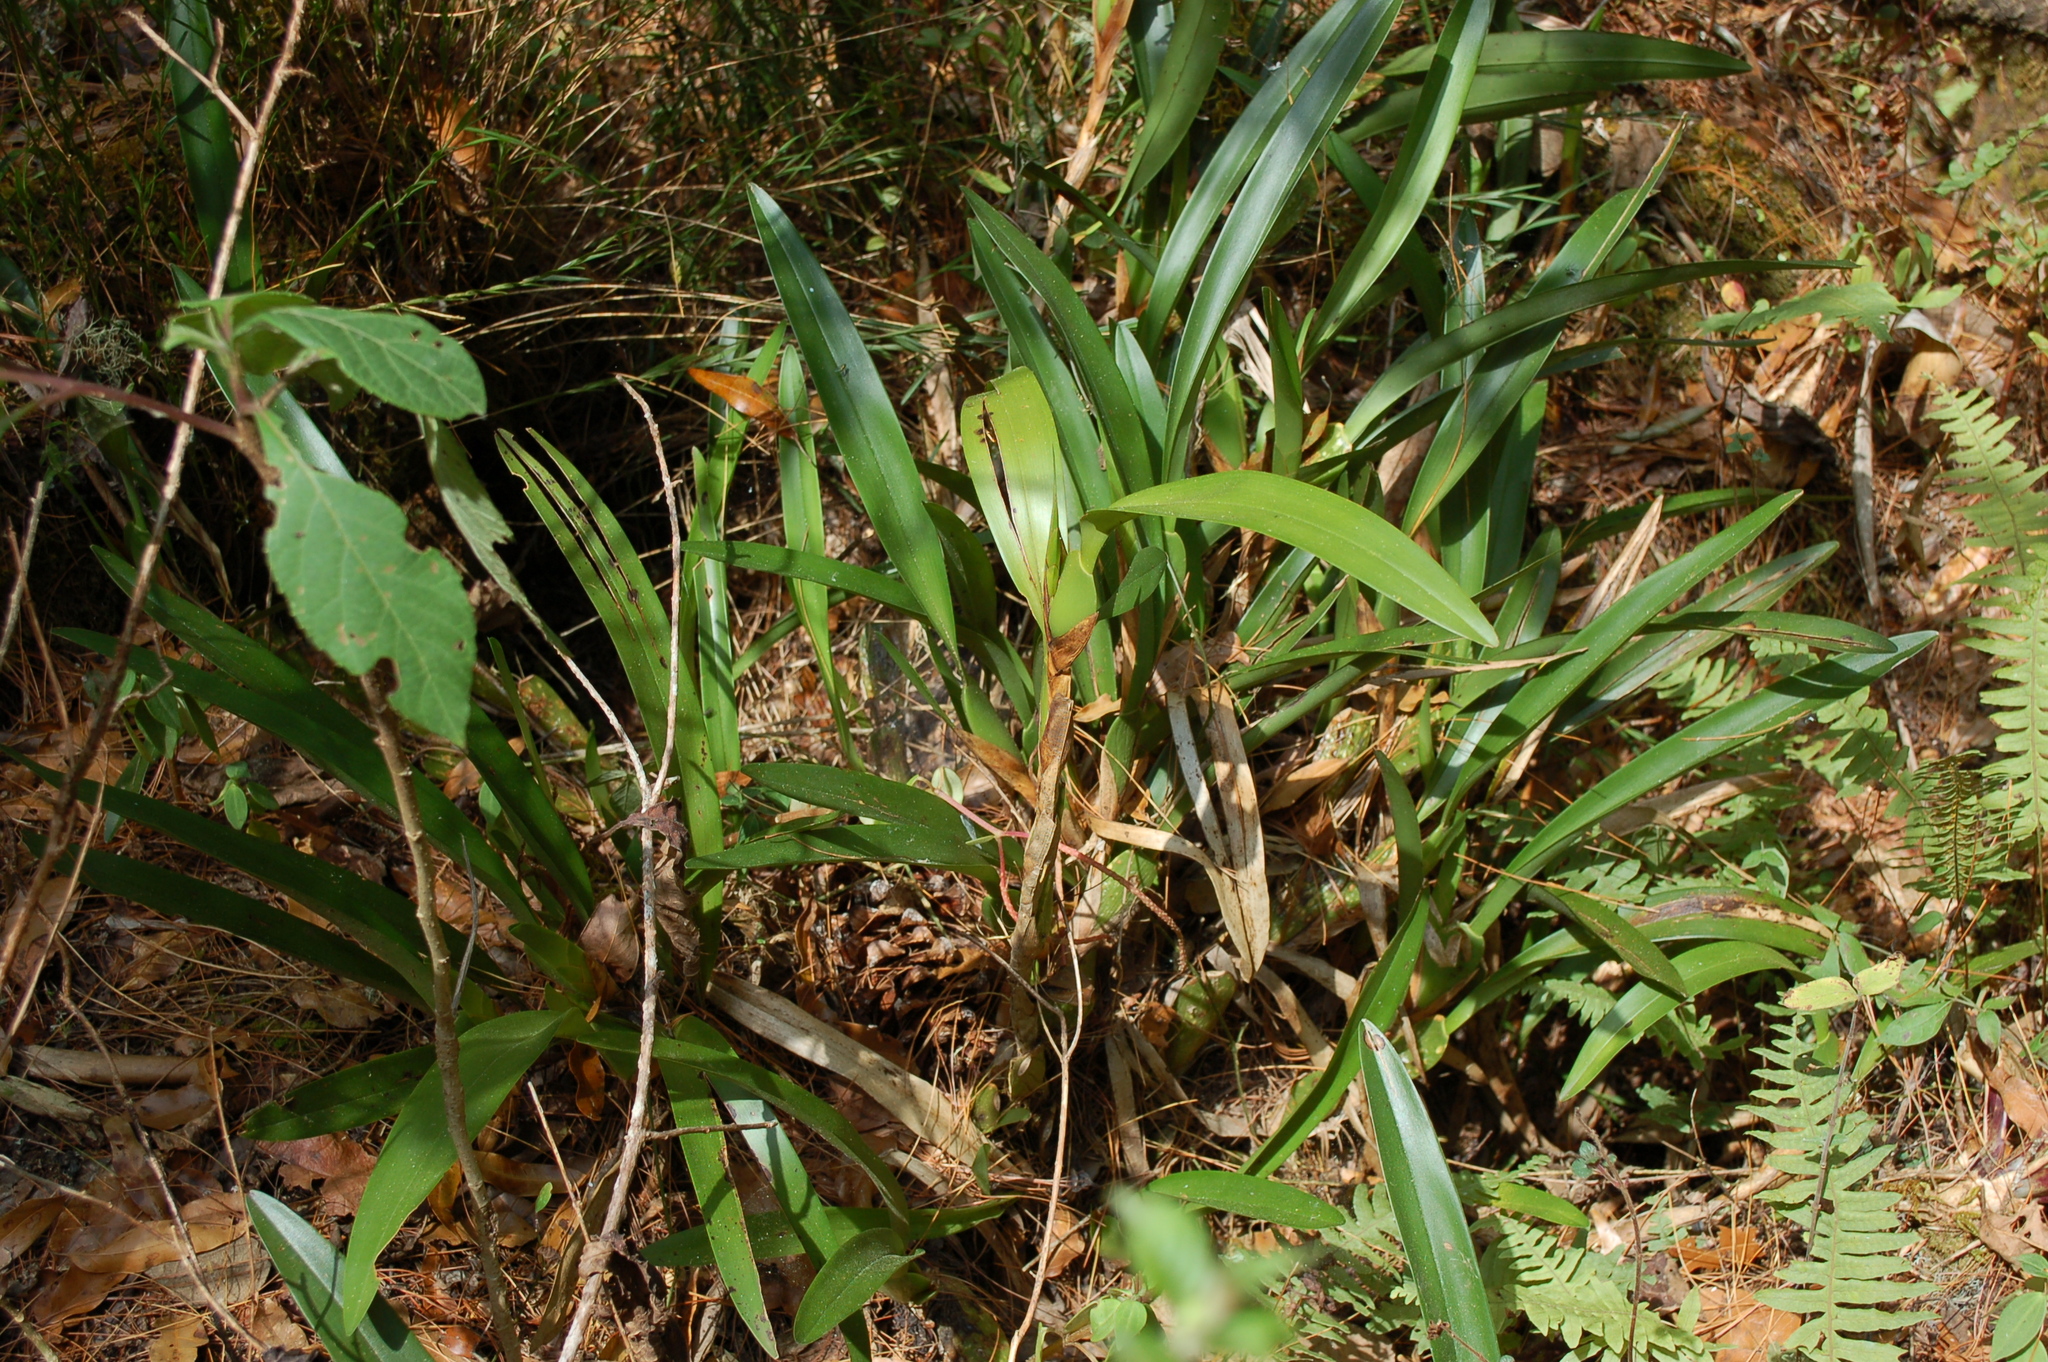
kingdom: Plantae
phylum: Tracheophyta
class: Liliopsida
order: Asparagales
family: Orchidaceae
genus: Maxillaria
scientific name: Maxillaria hagsateriana
